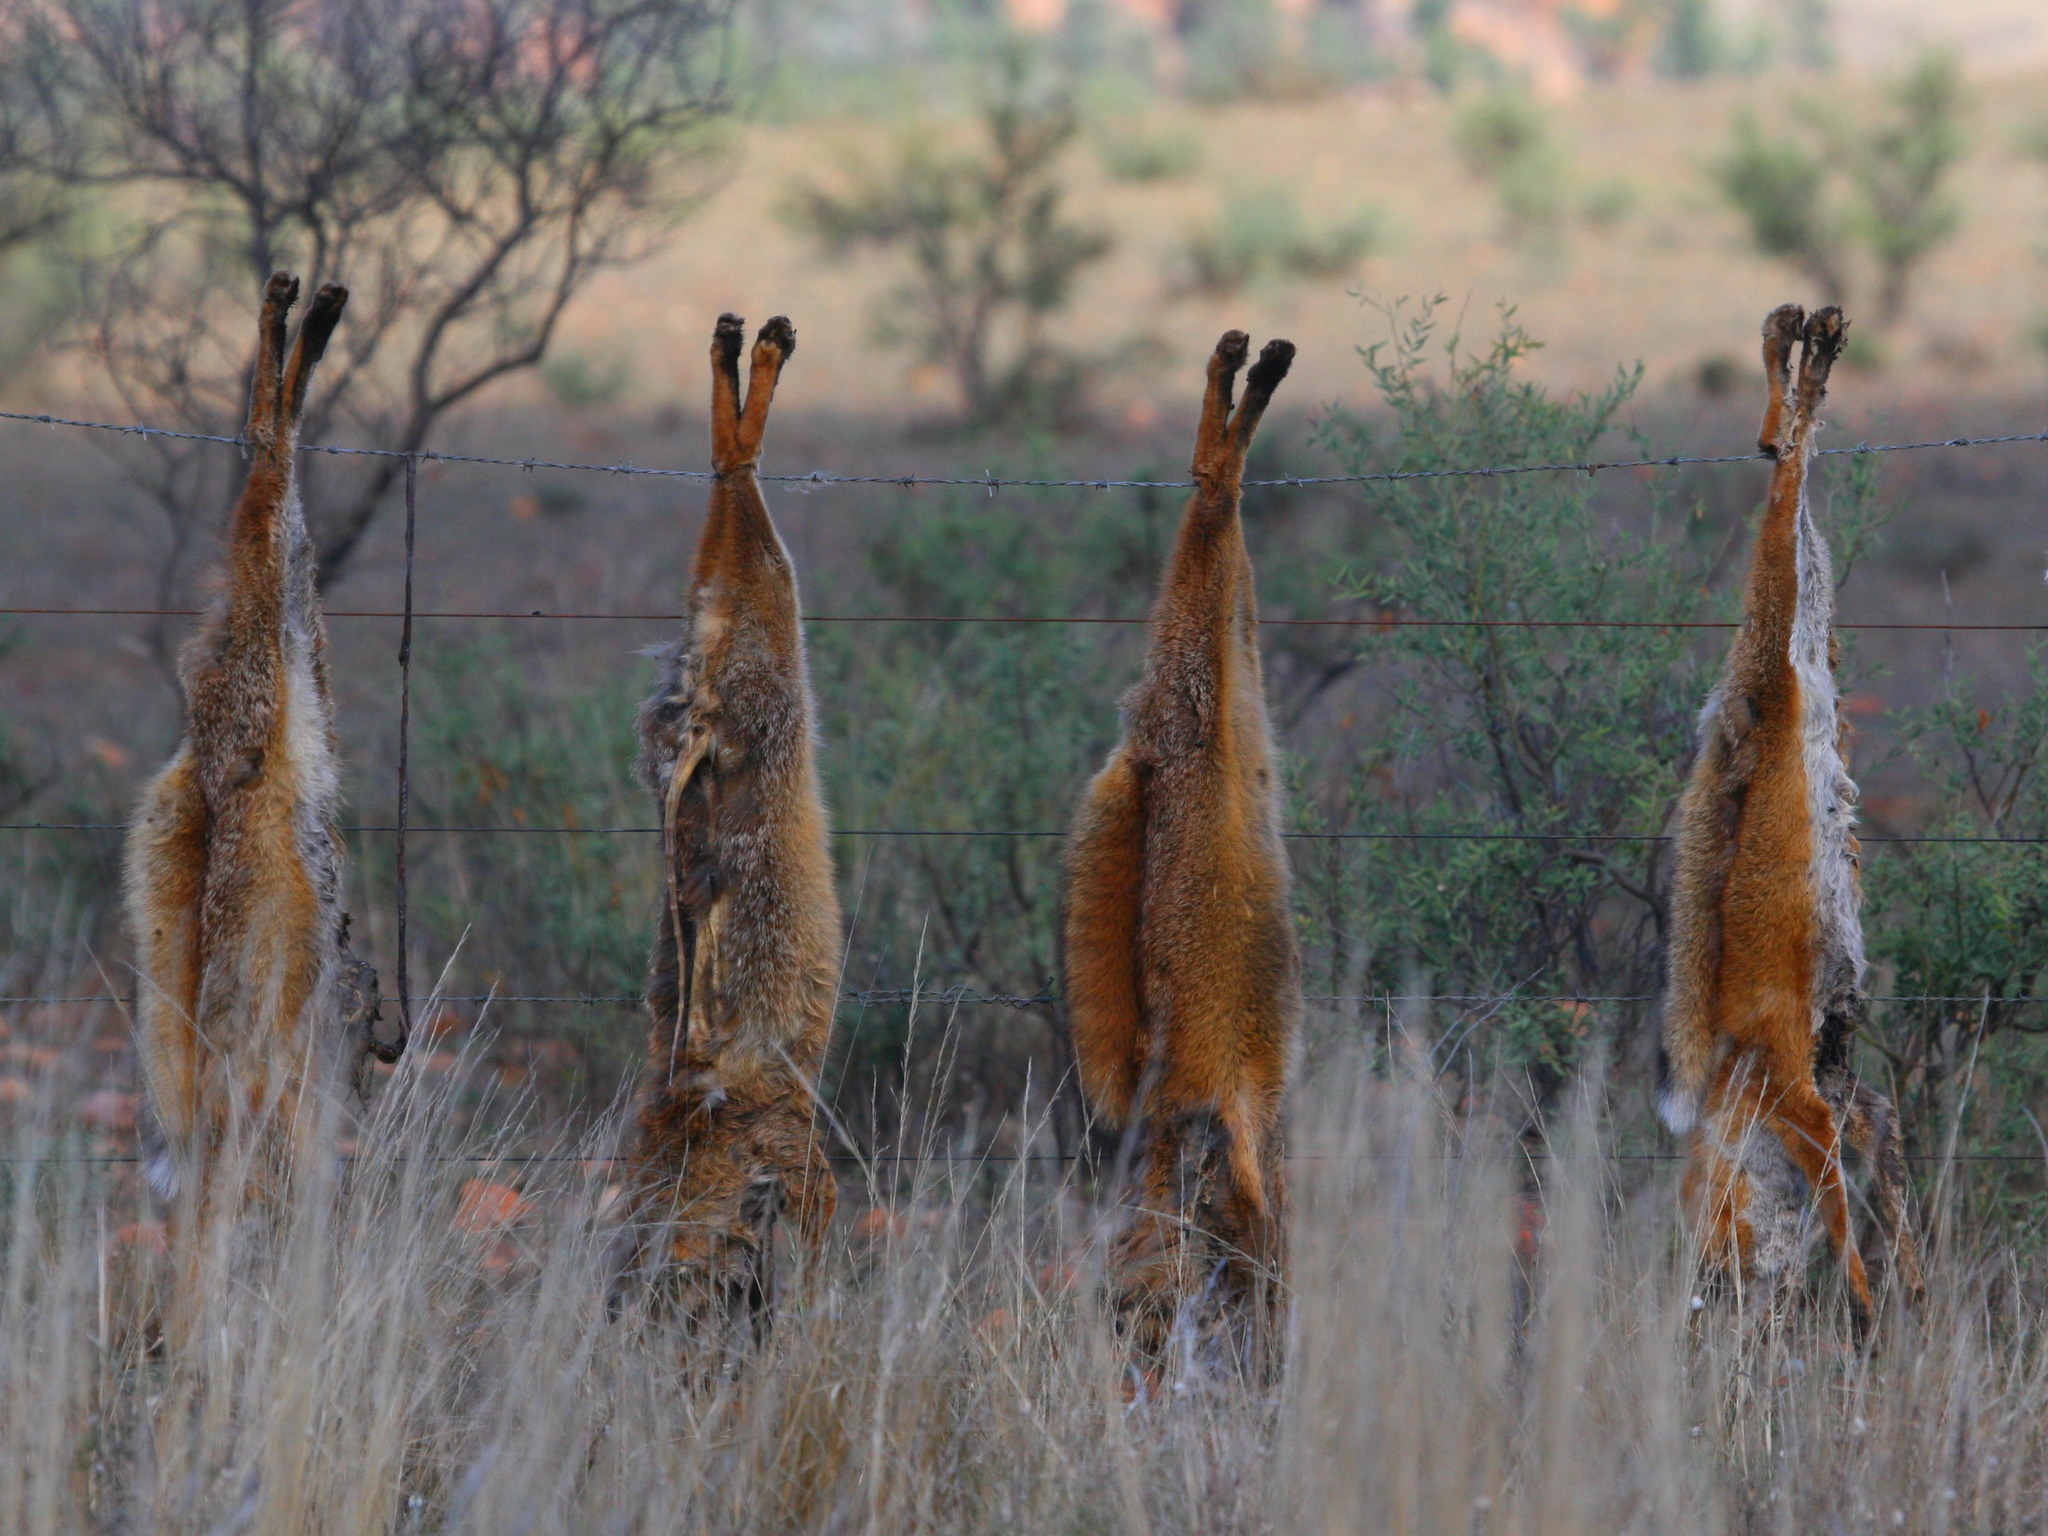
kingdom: Animalia
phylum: Chordata
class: Mammalia
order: Carnivora
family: Canidae
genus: Vulpes
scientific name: Vulpes vulpes
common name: Red fox
